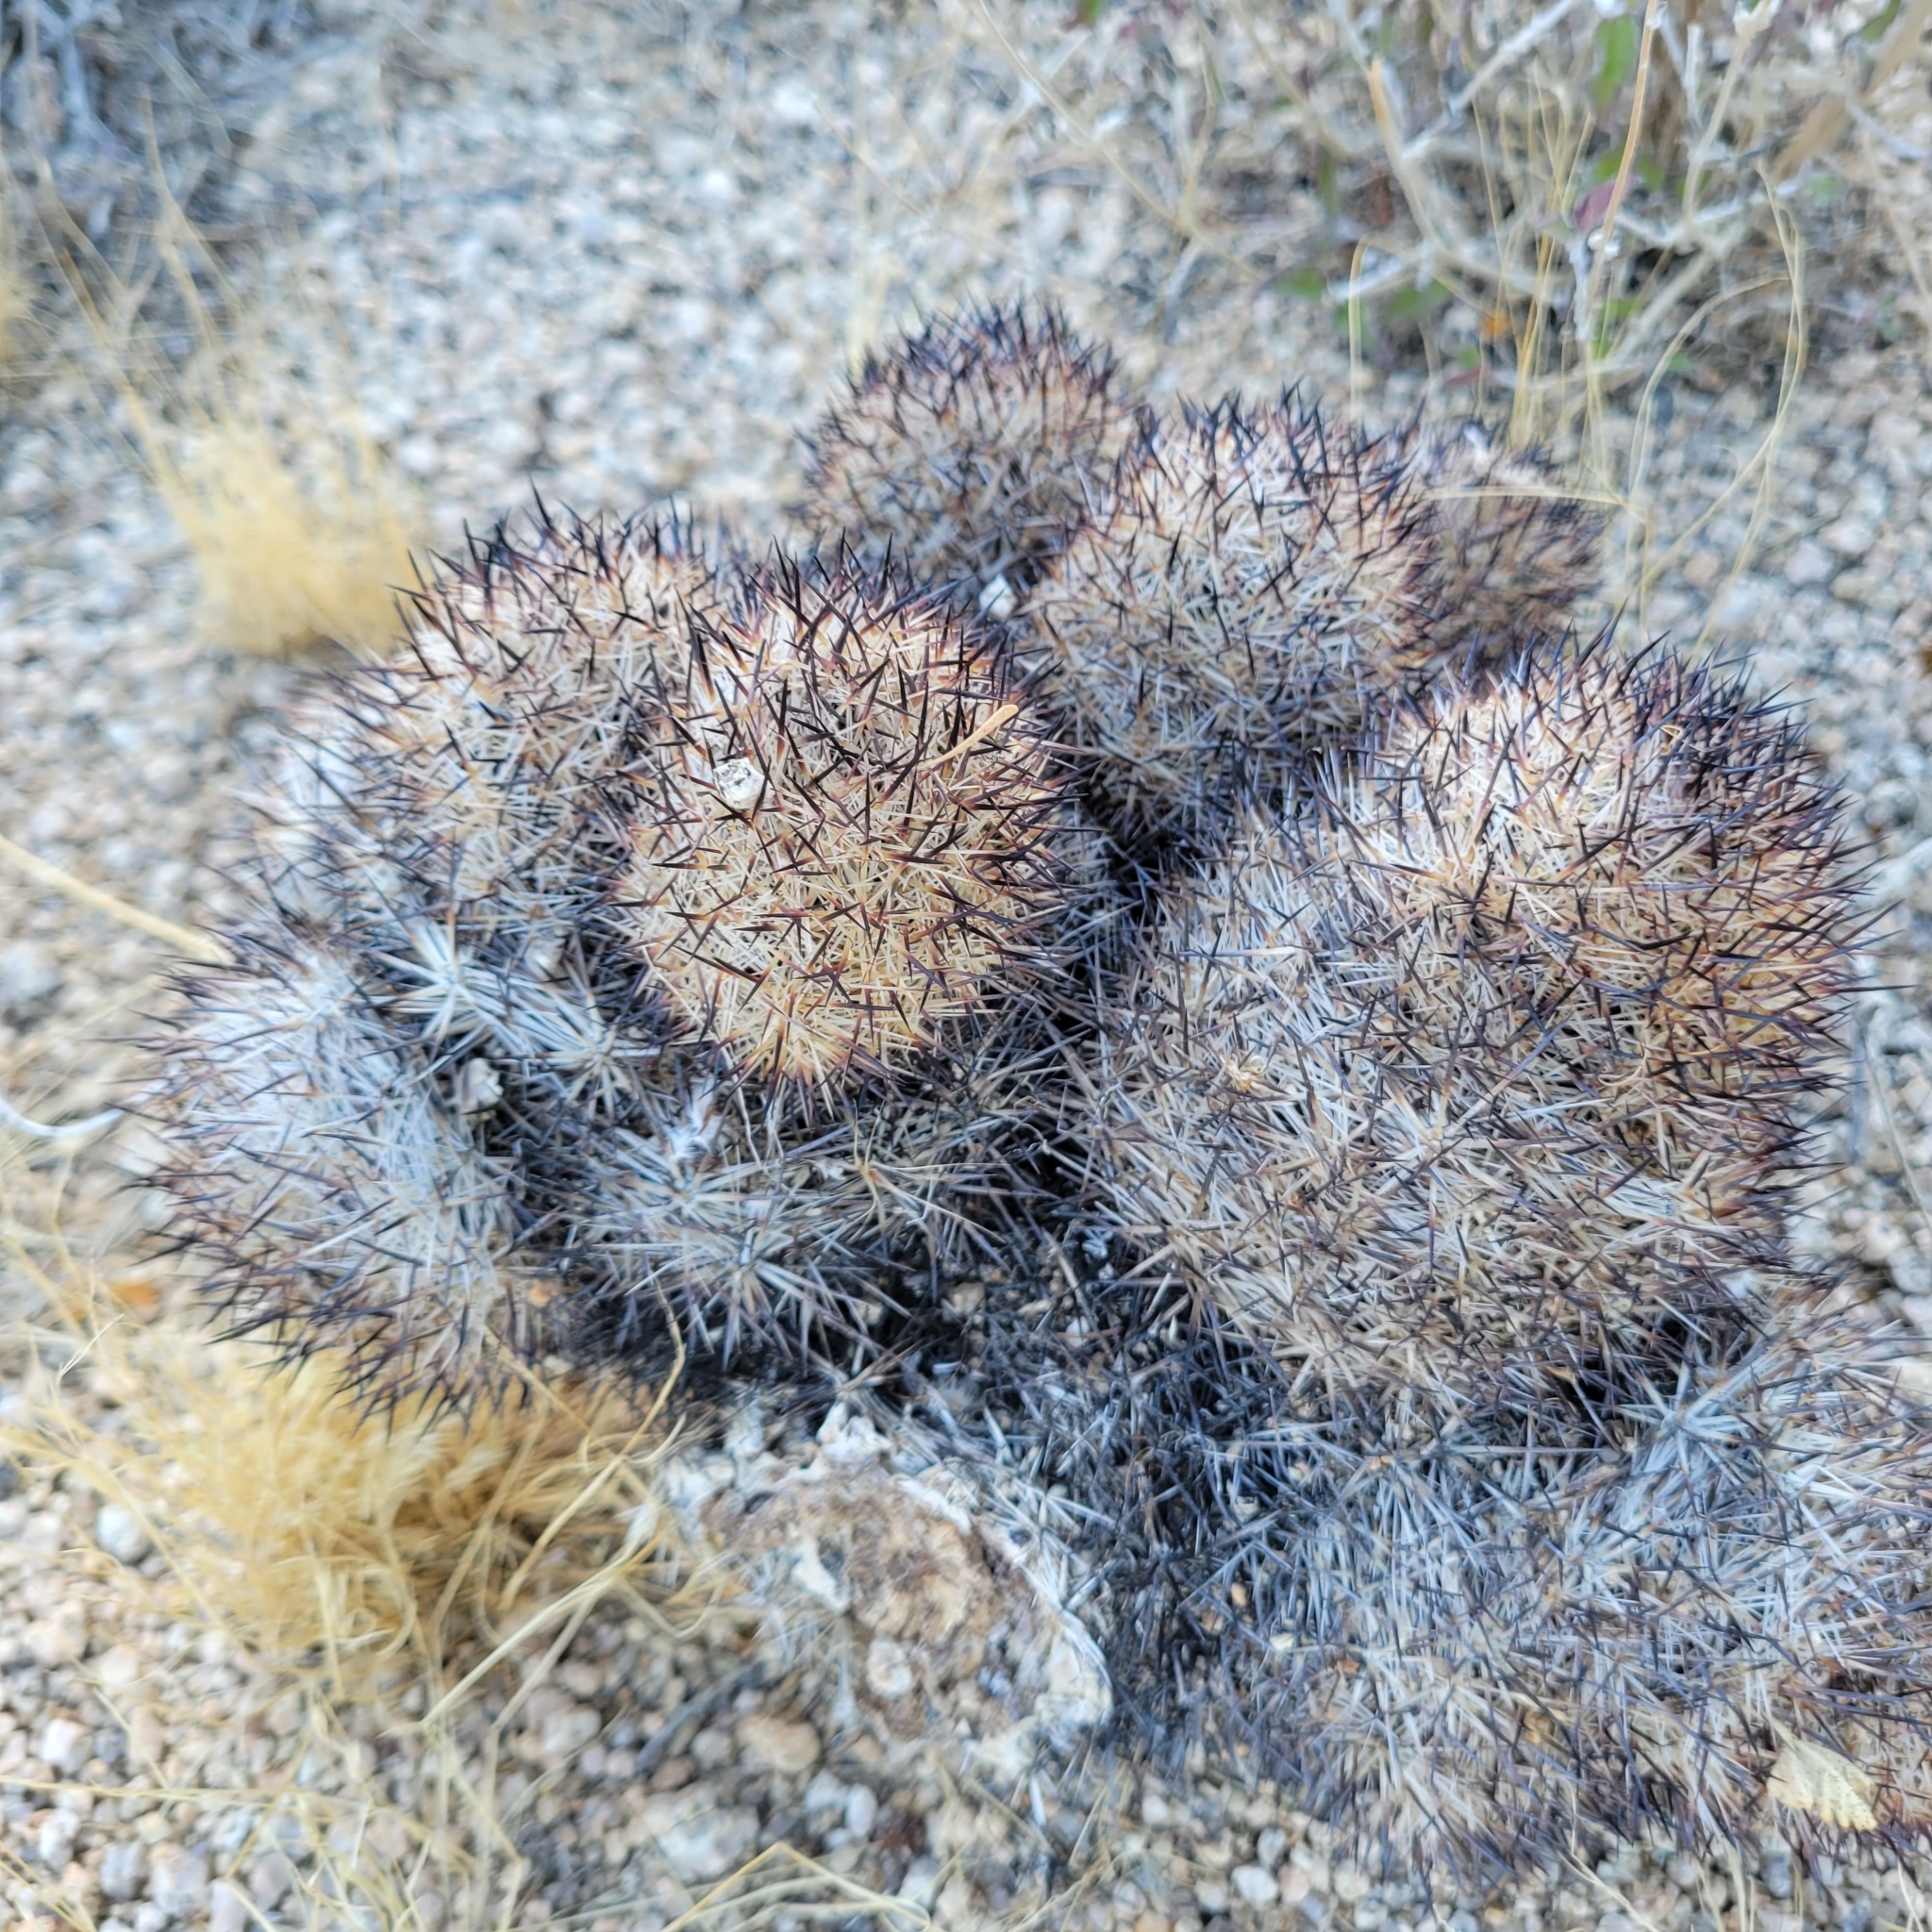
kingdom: Plantae
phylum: Tracheophyta
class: Magnoliopsida
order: Caryophyllales
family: Cactaceae
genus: Pelecyphora
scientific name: Pelecyphora alversonii
